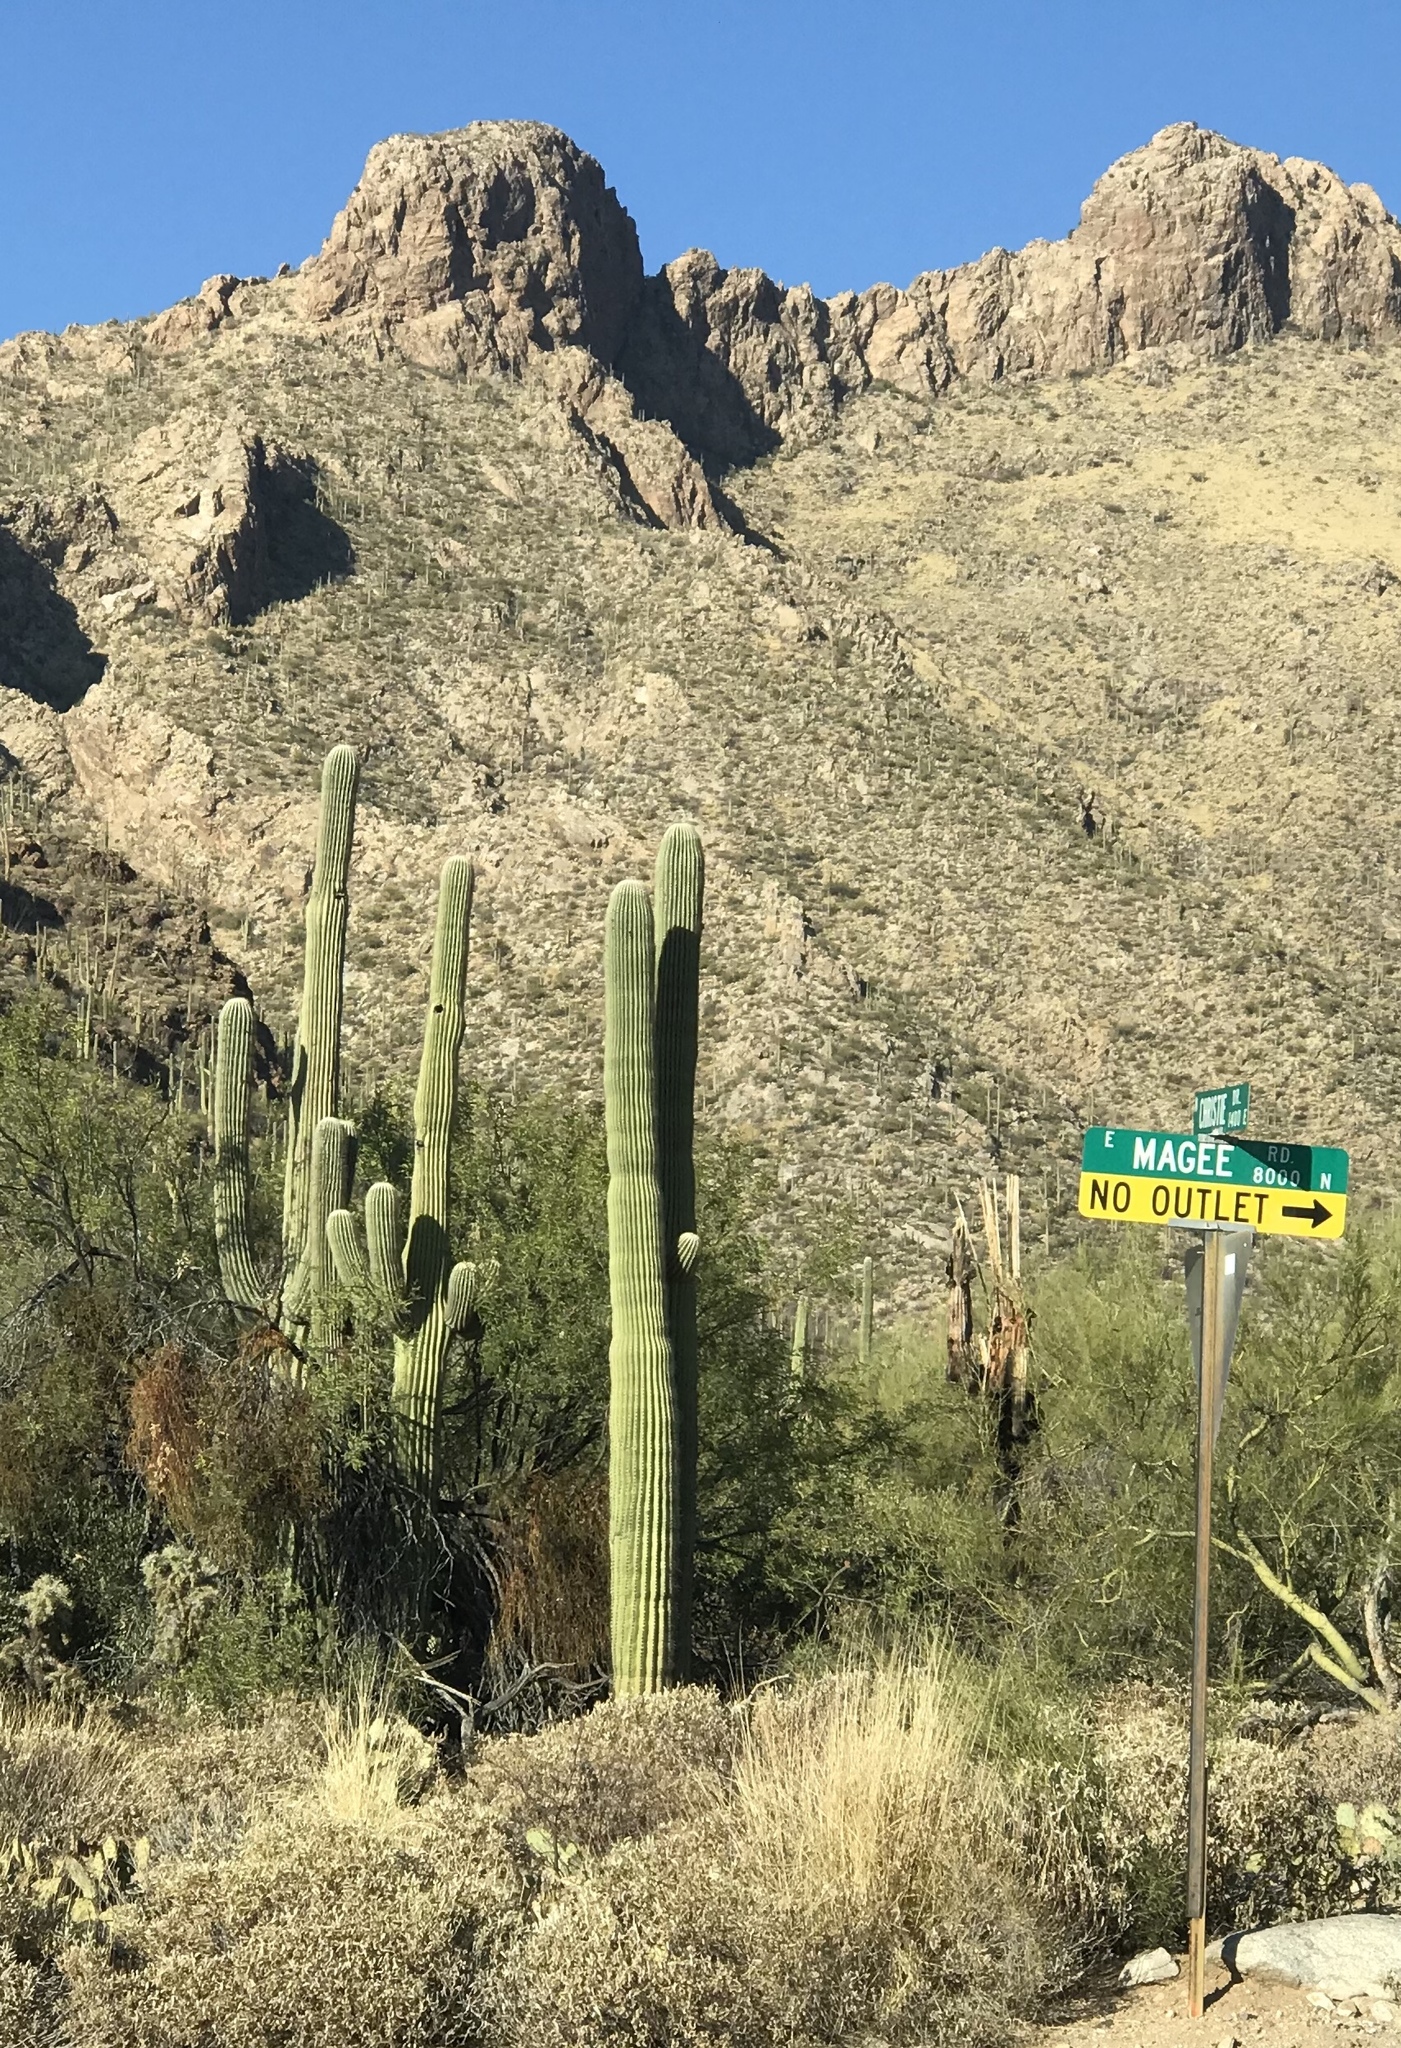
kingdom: Plantae
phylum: Tracheophyta
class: Magnoliopsida
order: Caryophyllales
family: Cactaceae
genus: Carnegiea
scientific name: Carnegiea gigantea
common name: Saguaro
